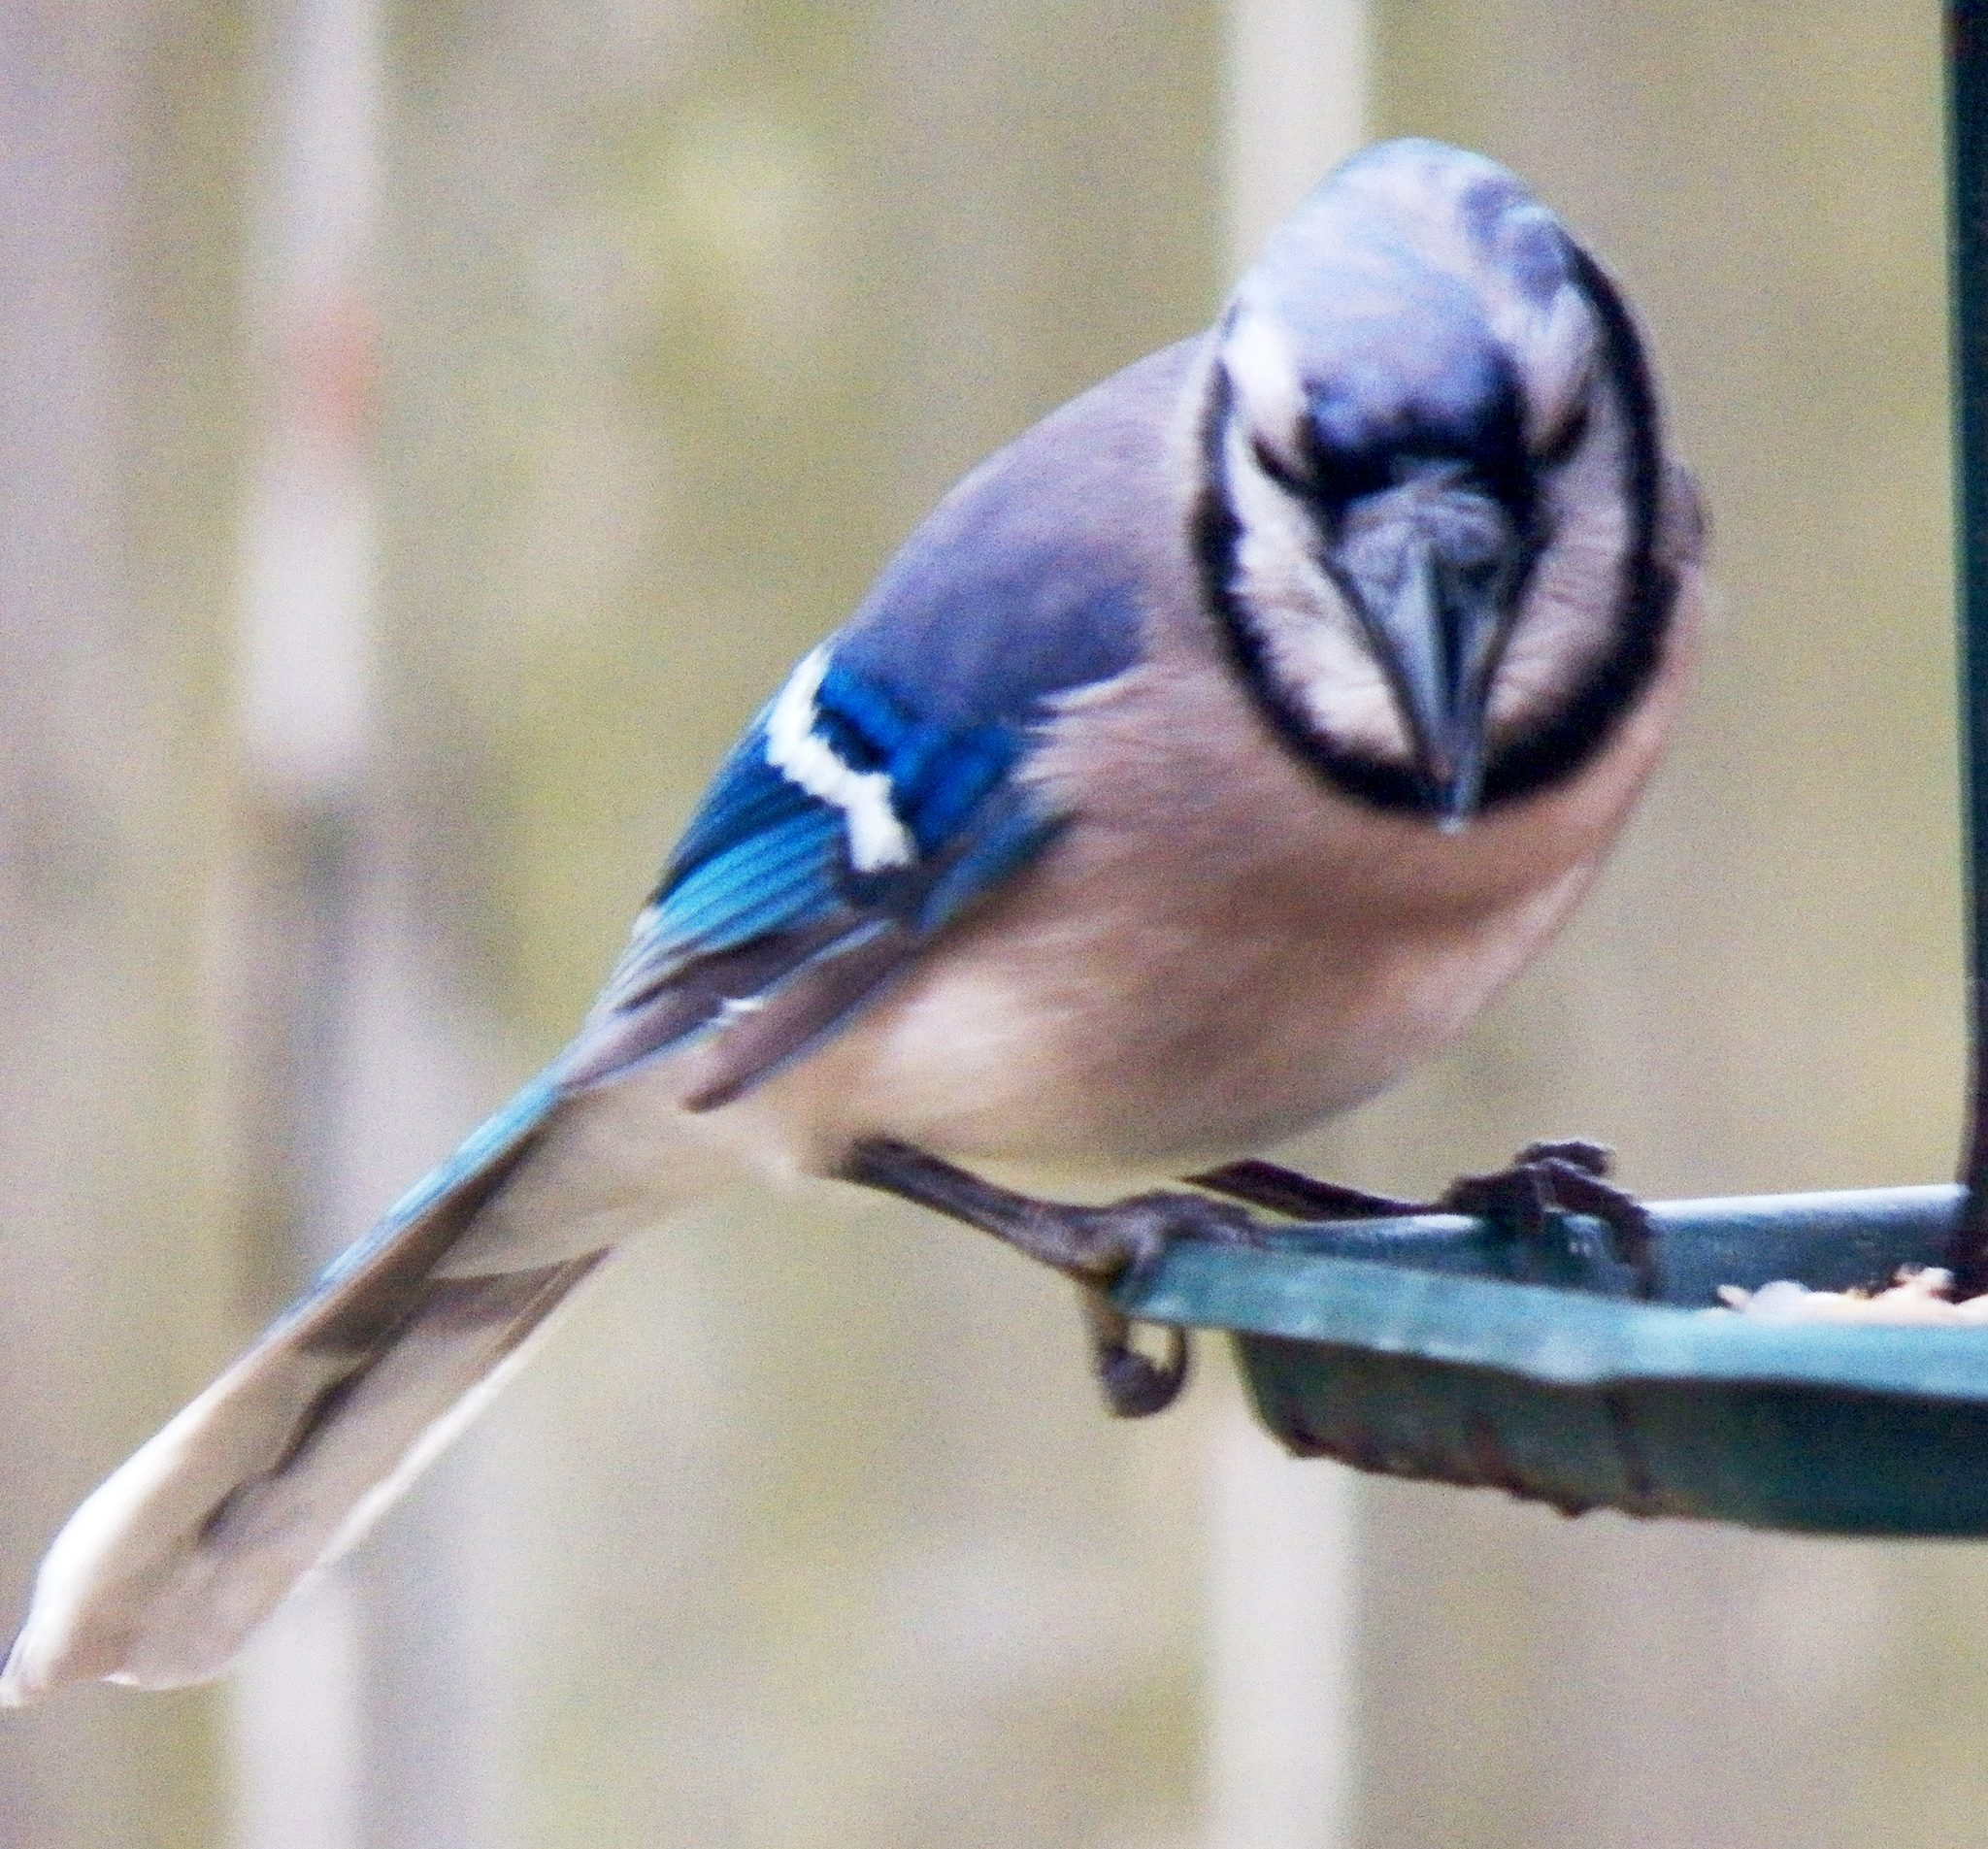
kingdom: Animalia
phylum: Chordata
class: Aves
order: Passeriformes
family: Corvidae
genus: Cyanocitta
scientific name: Cyanocitta cristata
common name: Blue jay
